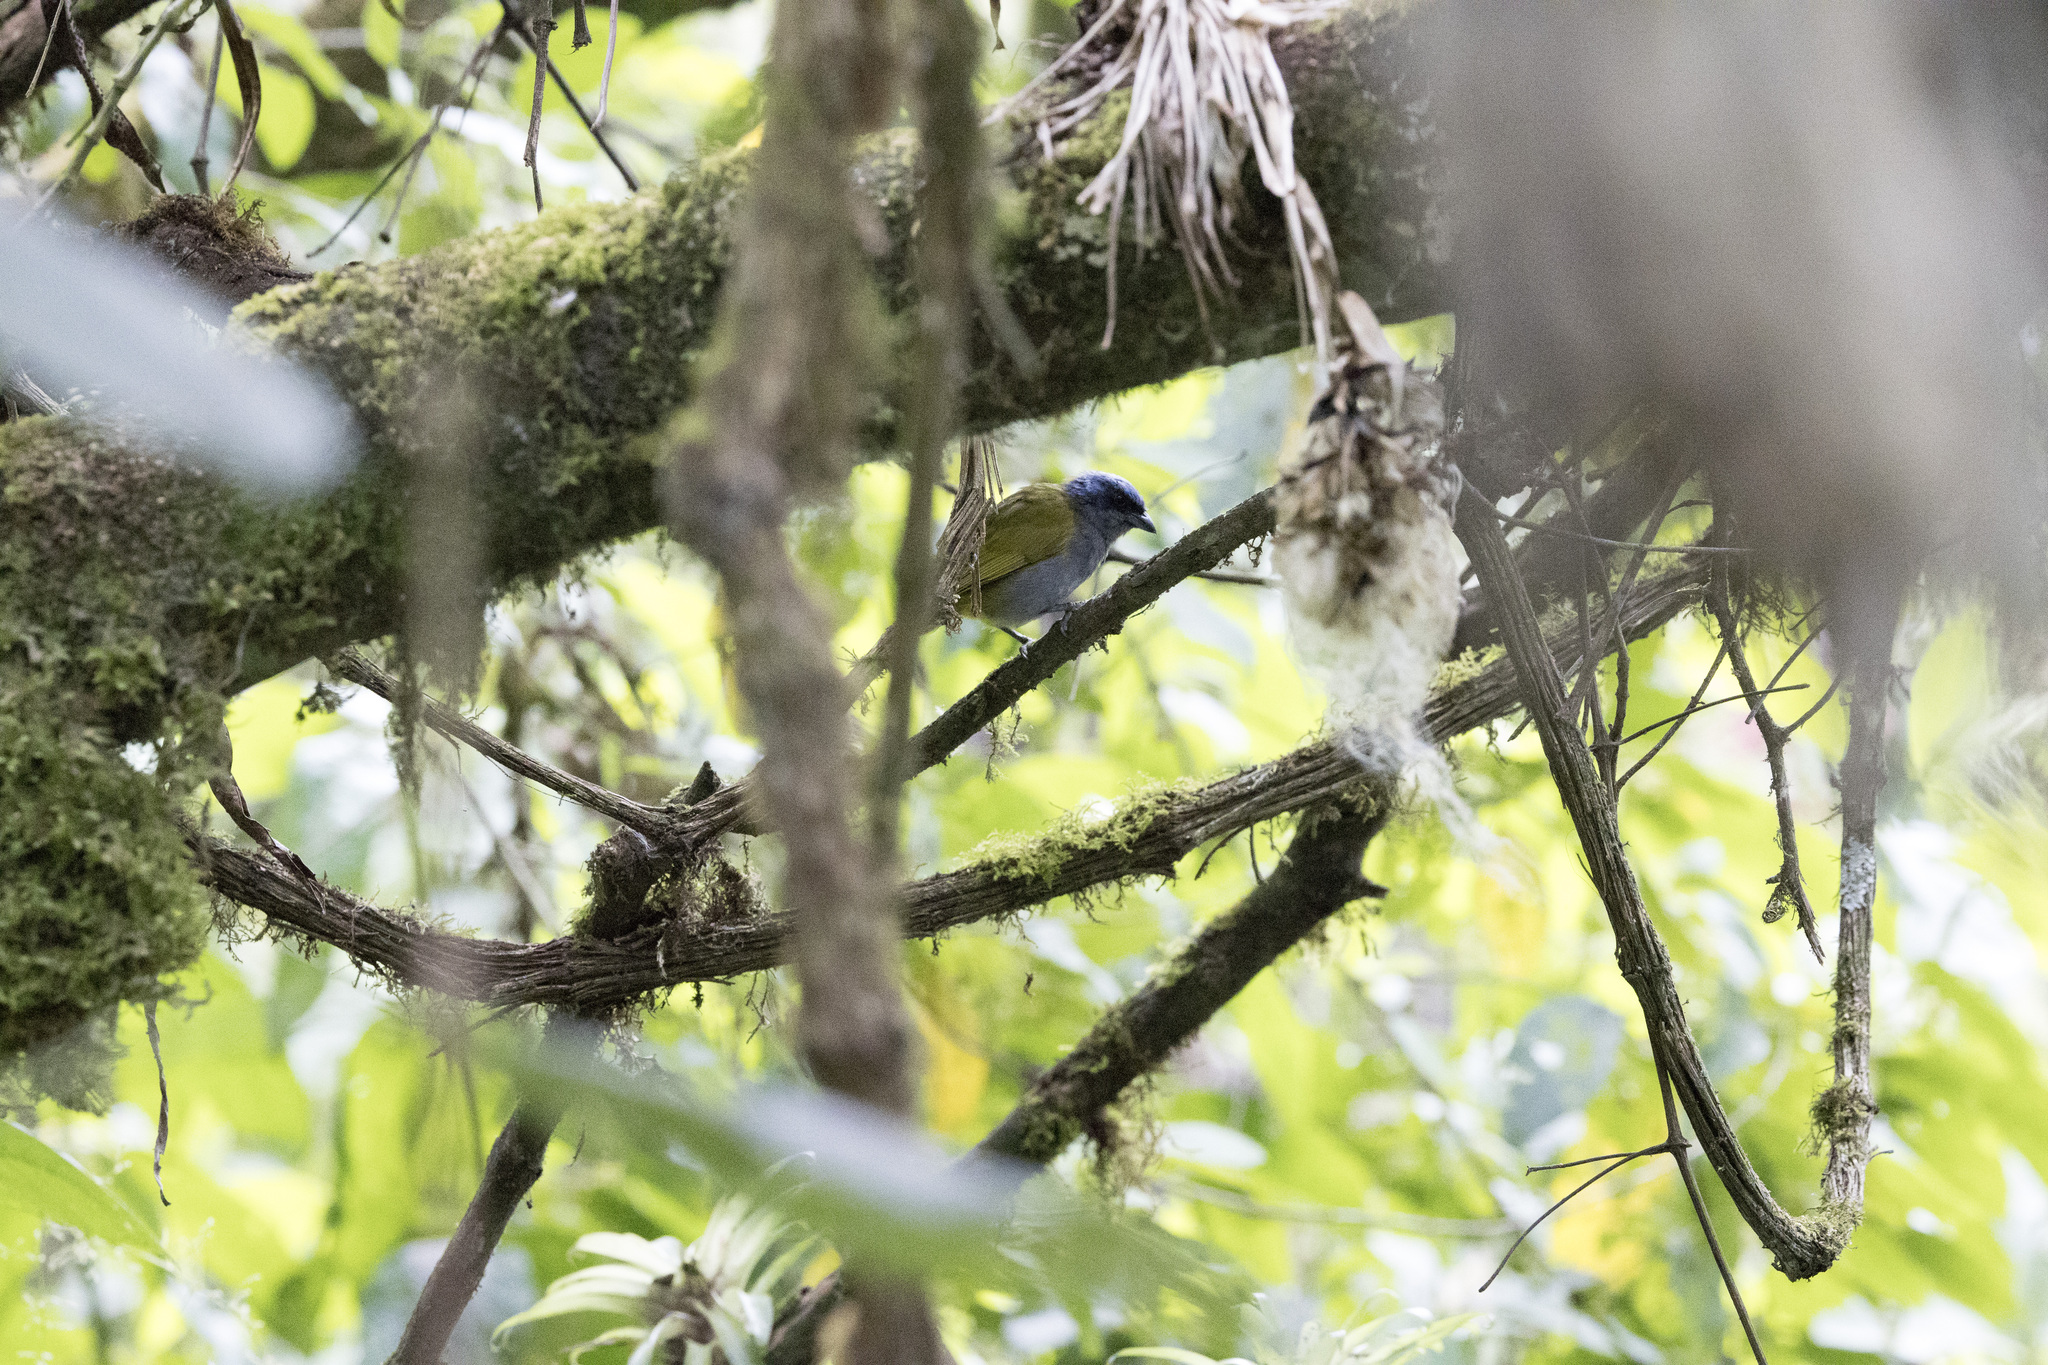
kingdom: Animalia
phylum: Chordata
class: Aves
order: Passeriformes
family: Thraupidae
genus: Sporathraupis
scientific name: Sporathraupis cyanocephala
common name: Blue-capped tanager
